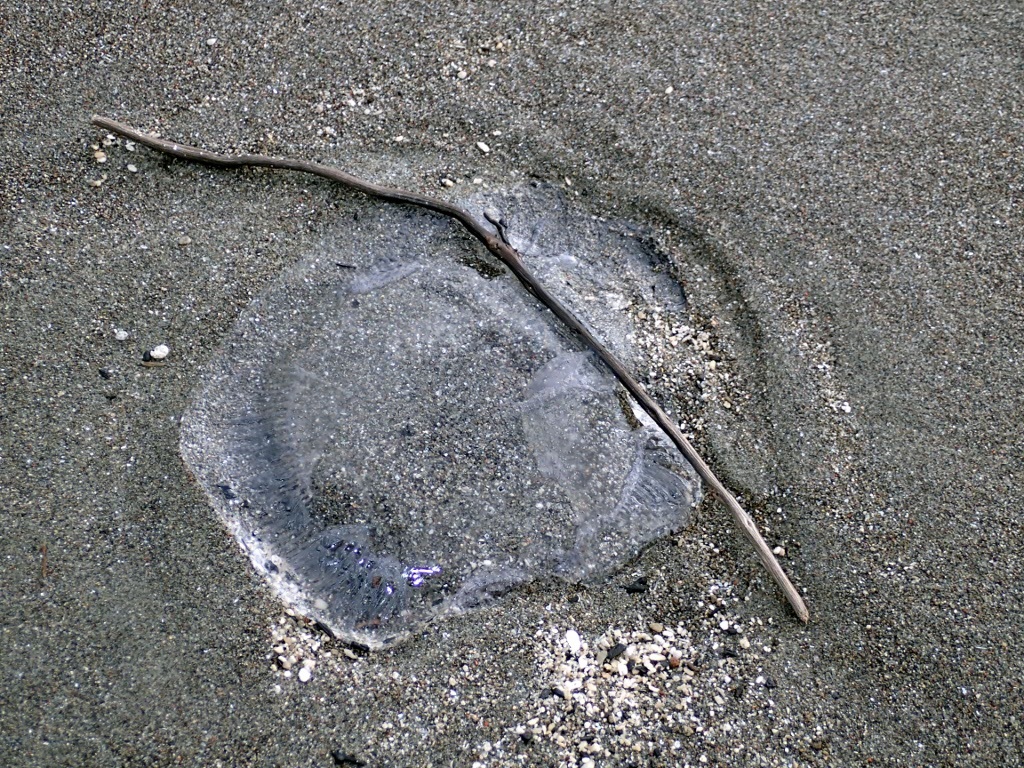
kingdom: Animalia
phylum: Cnidaria
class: Hydrozoa
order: Leptothecata
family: Aequoreidae
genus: Aequorea
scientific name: Aequorea forskalea
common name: Many-ribbed jellyfish
